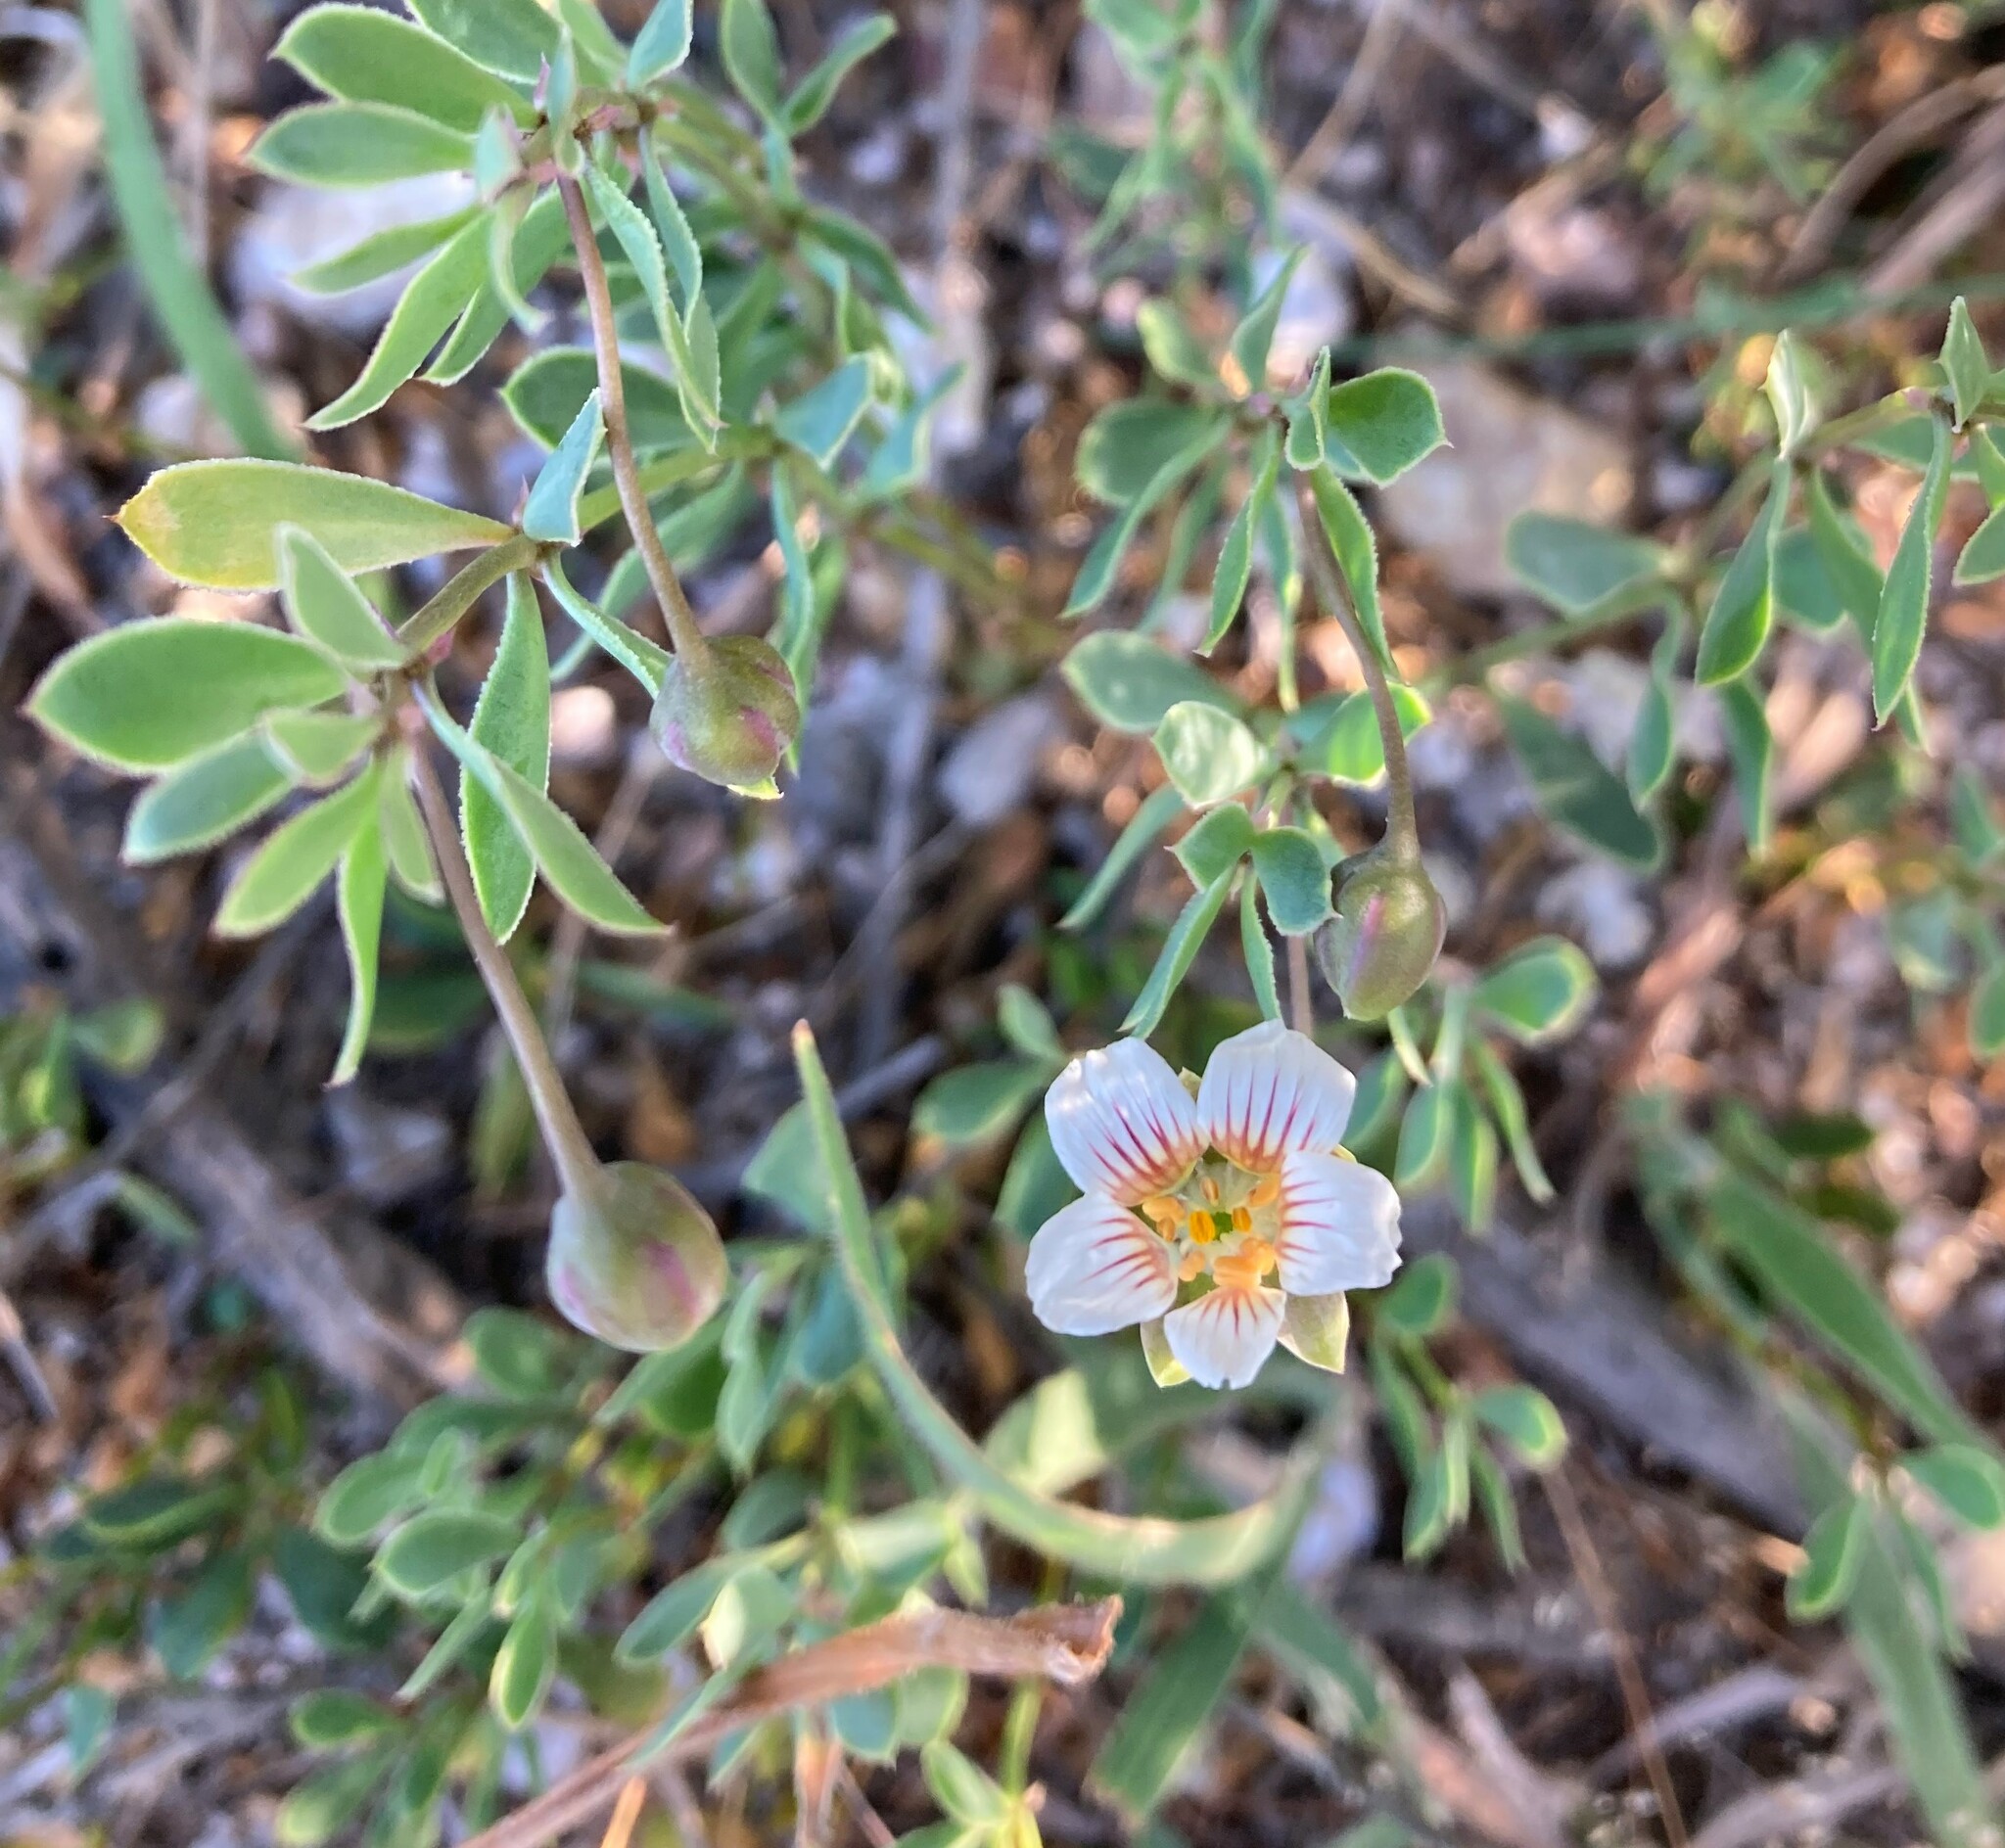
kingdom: Plantae
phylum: Tracheophyta
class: Magnoliopsida
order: Zygophyllales
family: Zygophyllaceae
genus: Roepera
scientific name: Roepera sessilifolia
